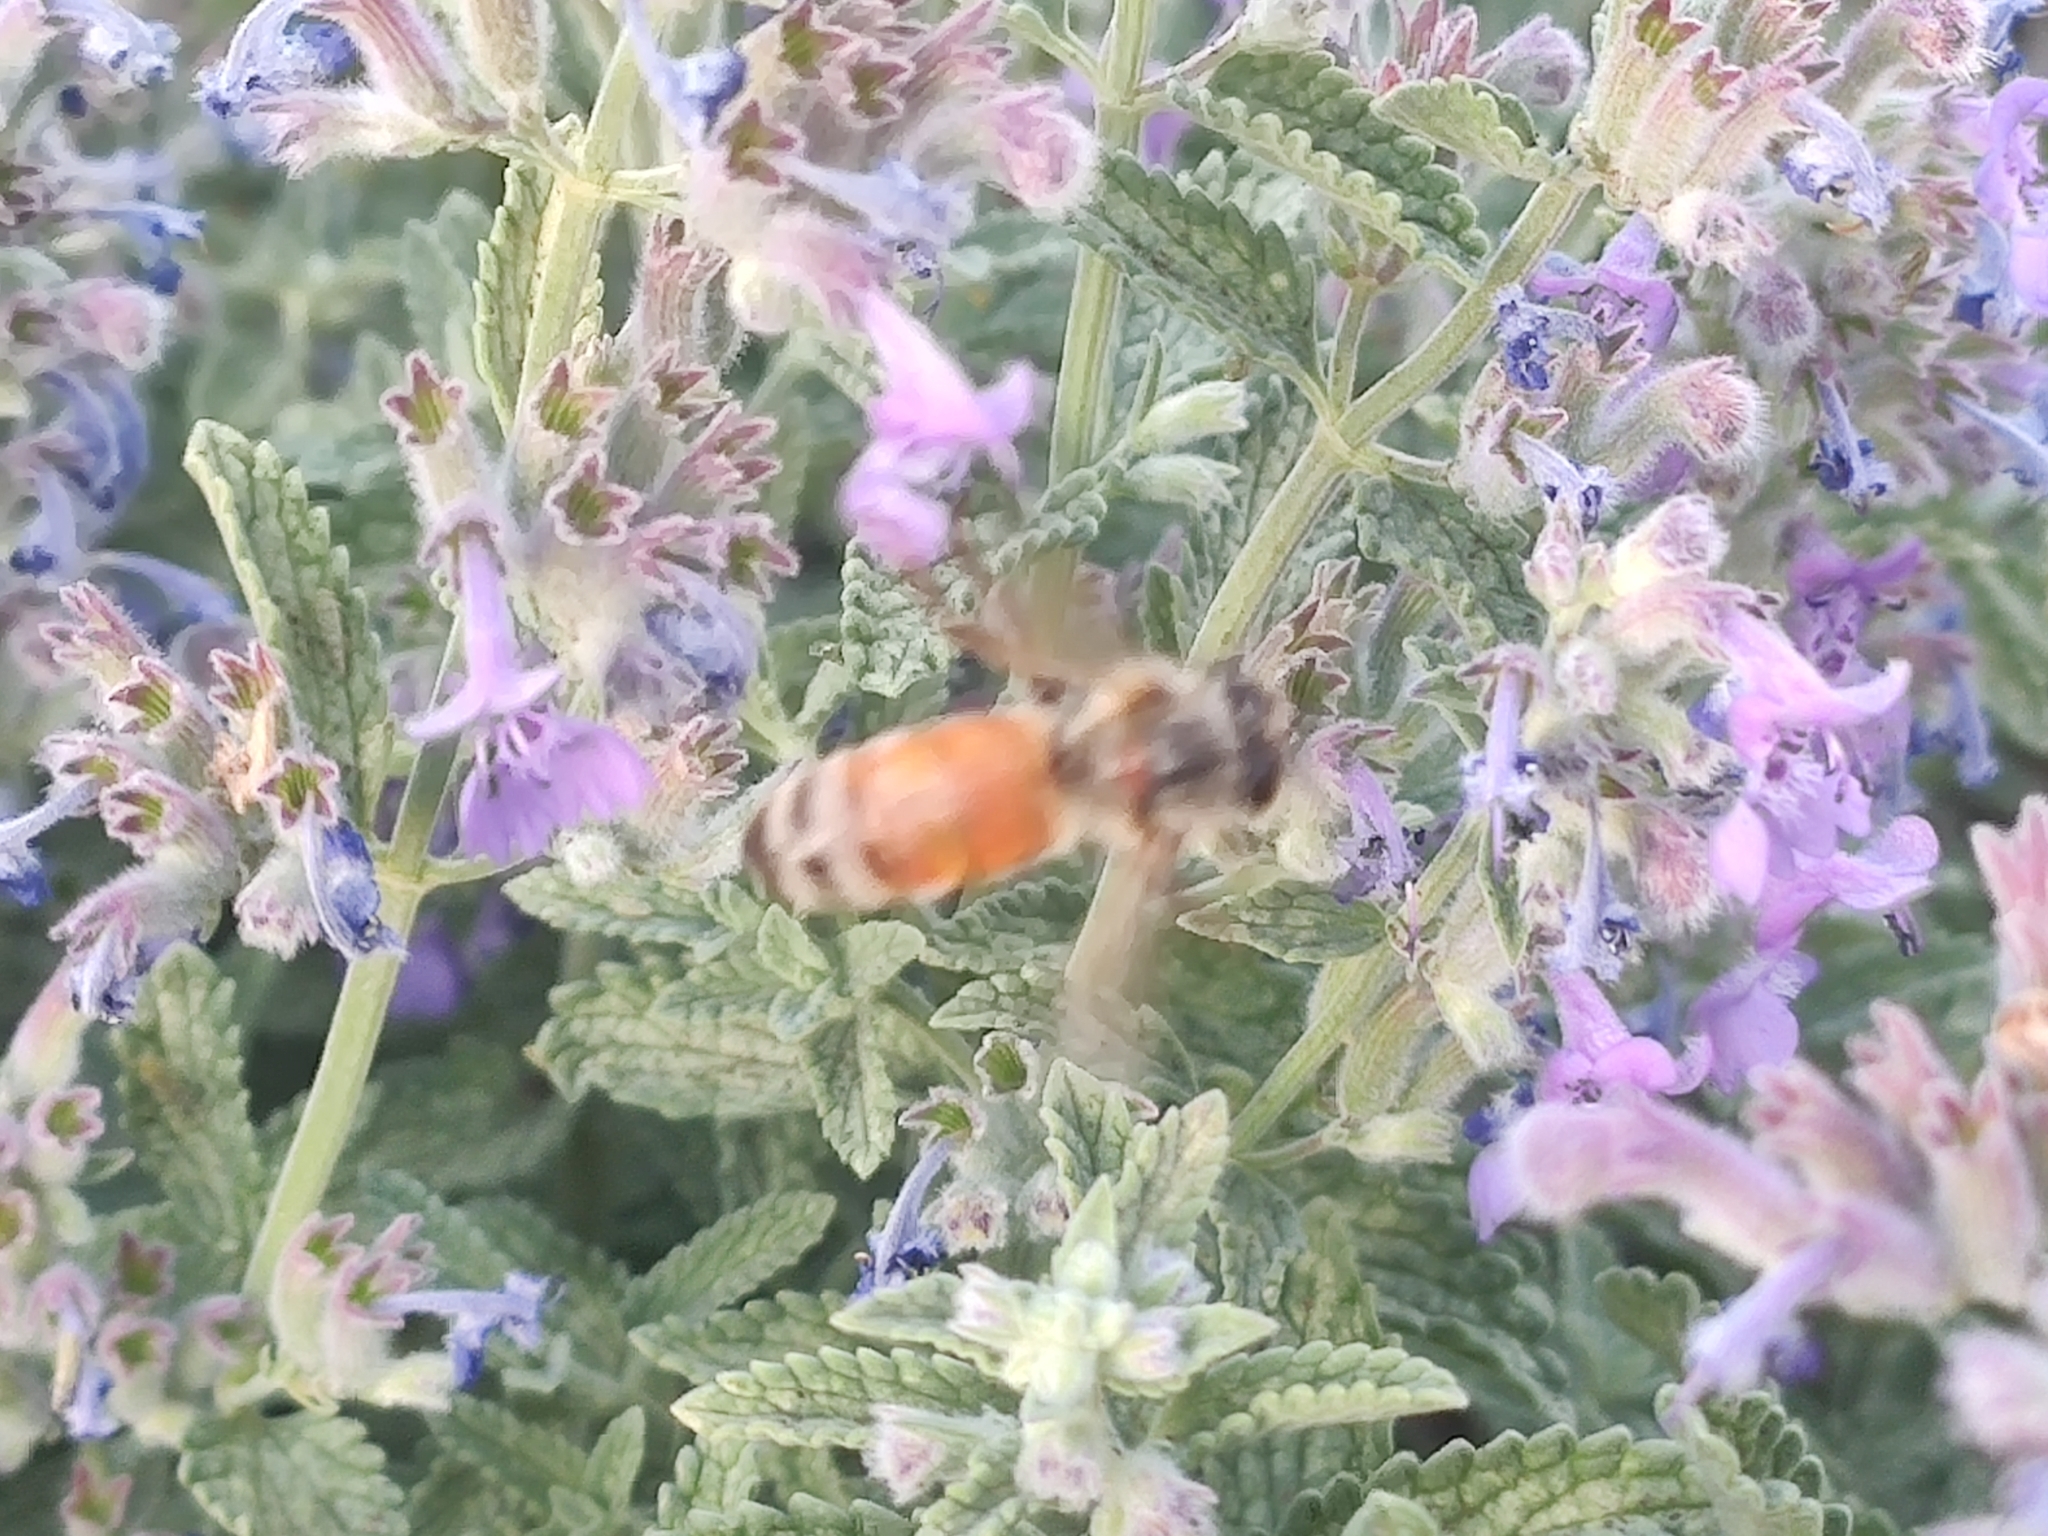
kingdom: Animalia
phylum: Arthropoda
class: Insecta
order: Hymenoptera
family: Apidae
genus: Apis
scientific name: Apis mellifera
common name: Honey bee
